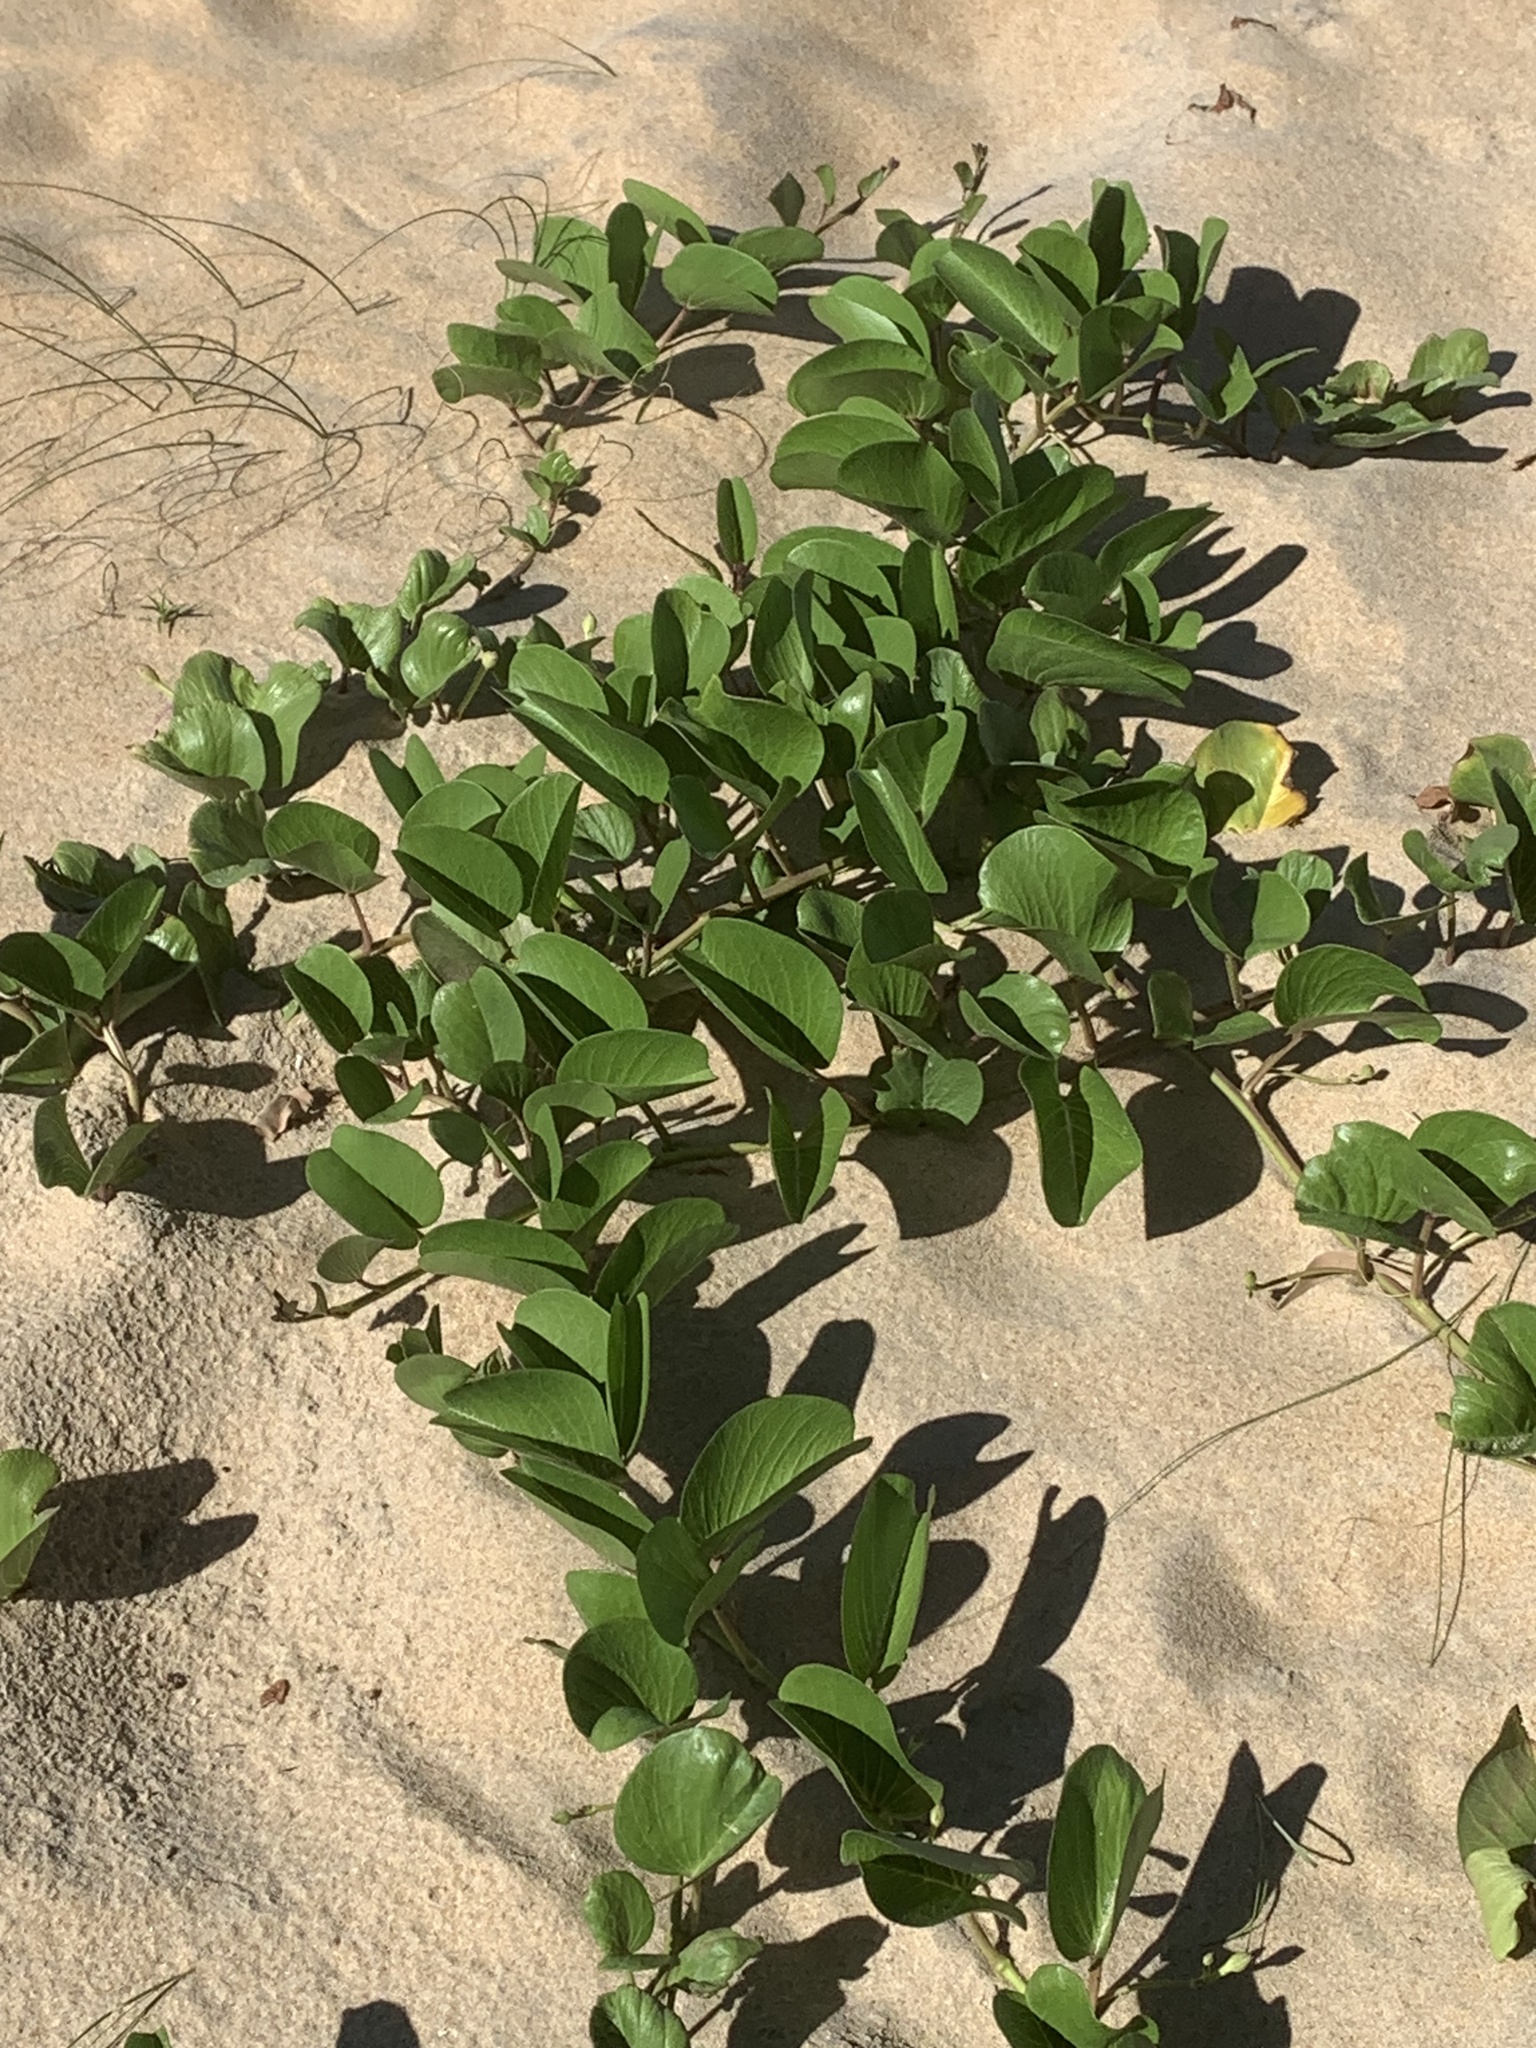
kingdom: Plantae
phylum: Tracheophyta
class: Magnoliopsida
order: Solanales
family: Convolvulaceae
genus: Ipomoea
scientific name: Ipomoea pes-caprae
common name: Beach morning glory
